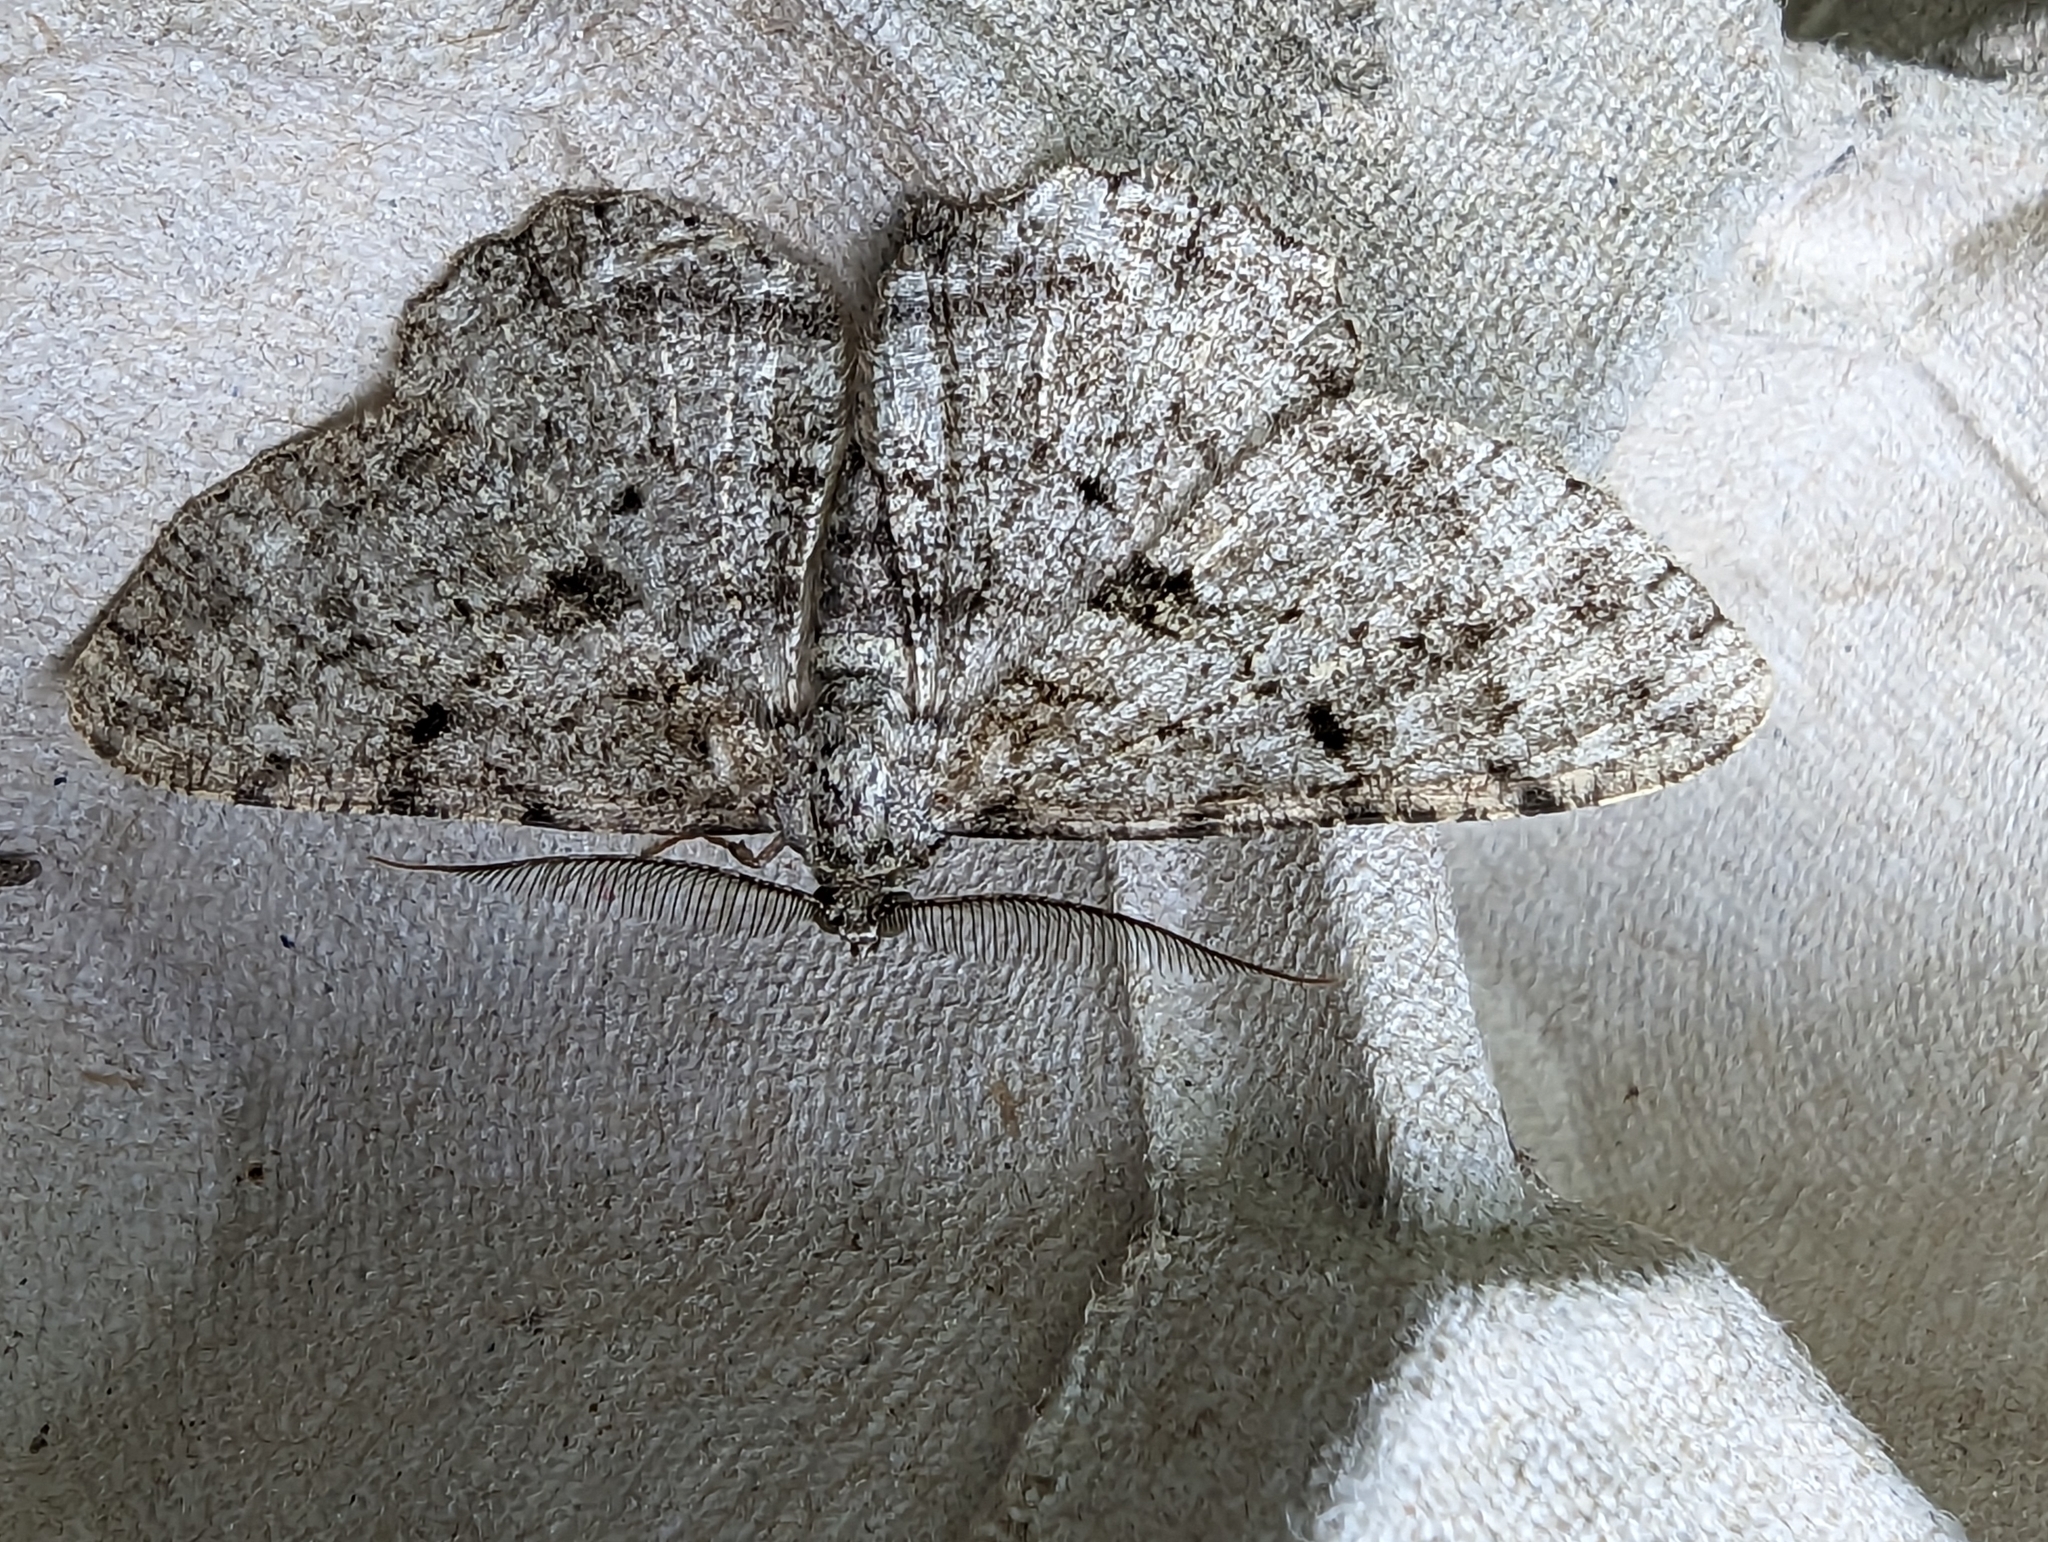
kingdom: Animalia
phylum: Arthropoda
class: Insecta
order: Lepidoptera
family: Geometridae
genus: Peribatodes
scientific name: Peribatodes rhomboidaria
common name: Willow beauty
